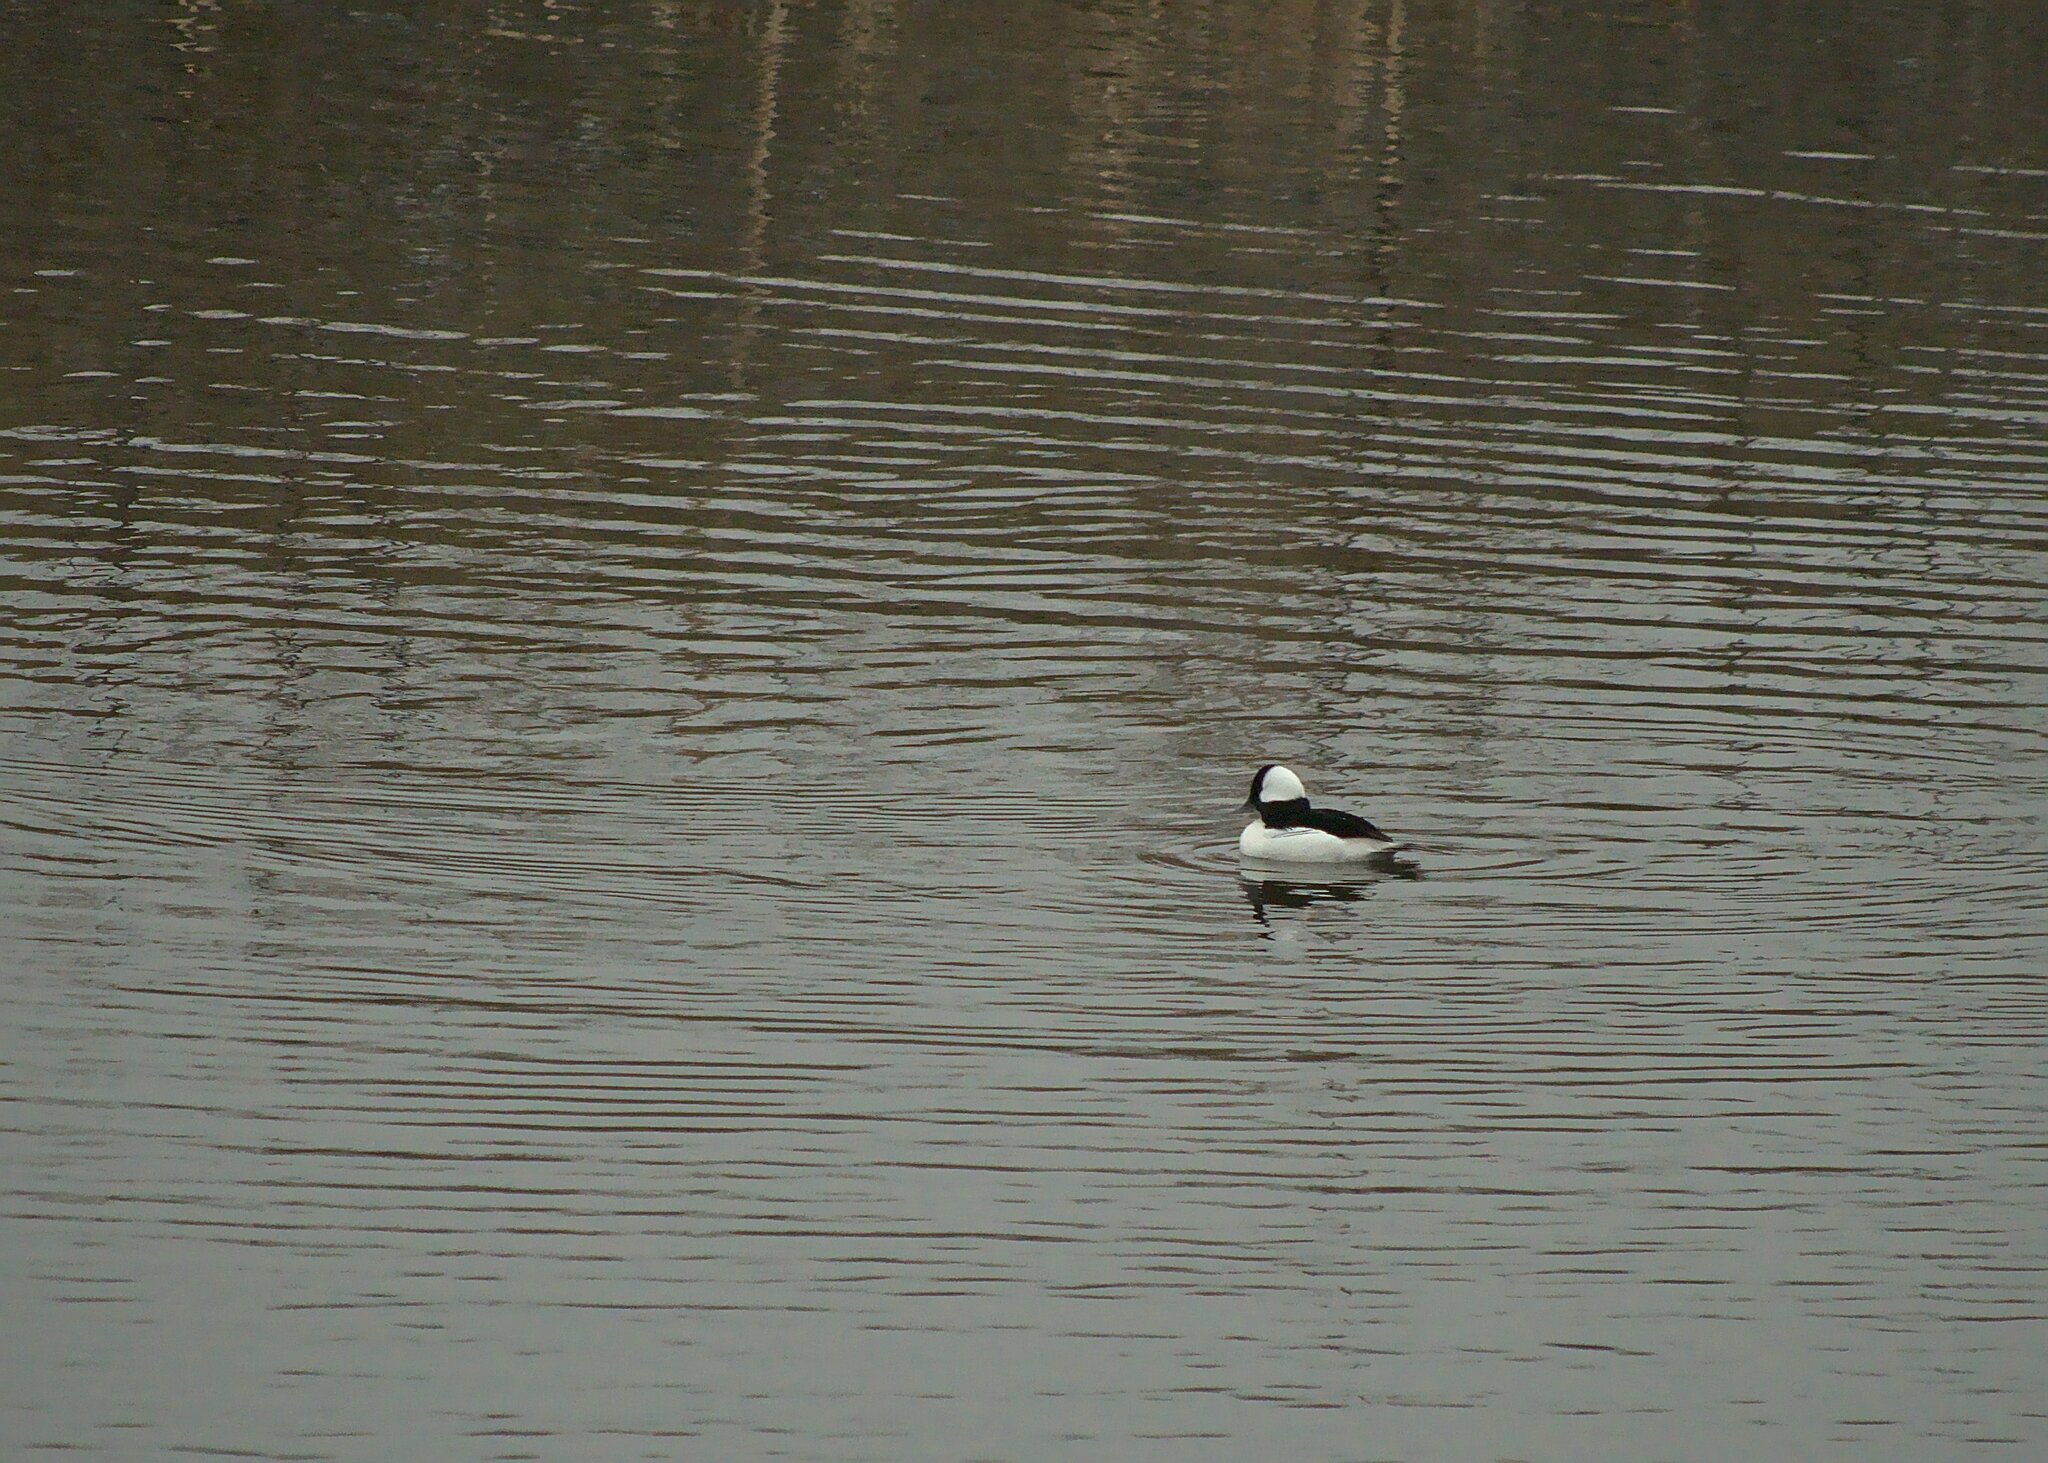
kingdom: Animalia
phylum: Chordata
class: Aves
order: Anseriformes
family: Anatidae
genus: Bucephala
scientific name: Bucephala albeola
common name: Bufflehead
